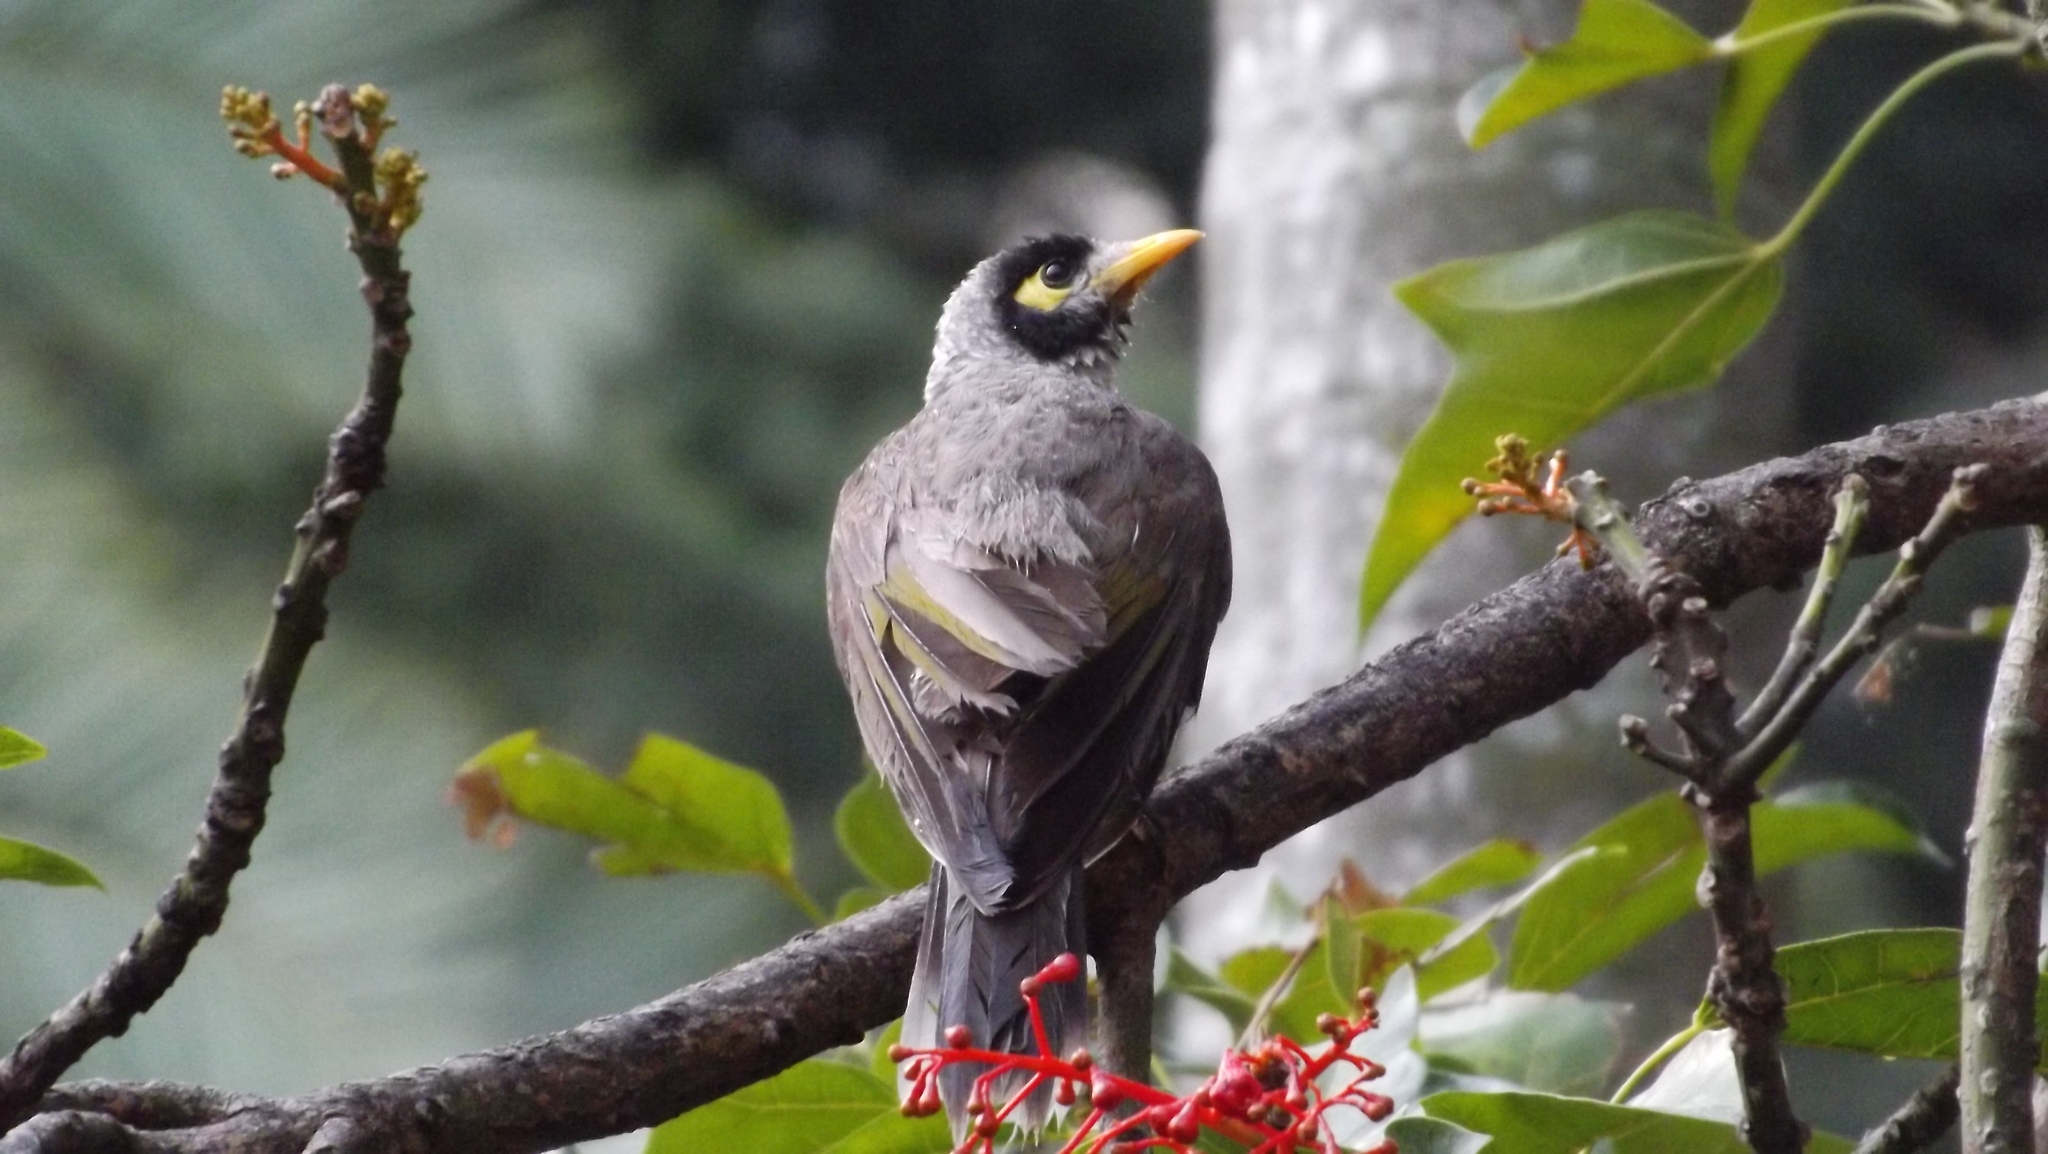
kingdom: Animalia
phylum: Chordata
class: Aves
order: Passeriformes
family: Meliphagidae
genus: Manorina
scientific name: Manorina melanocephala
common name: Noisy miner
